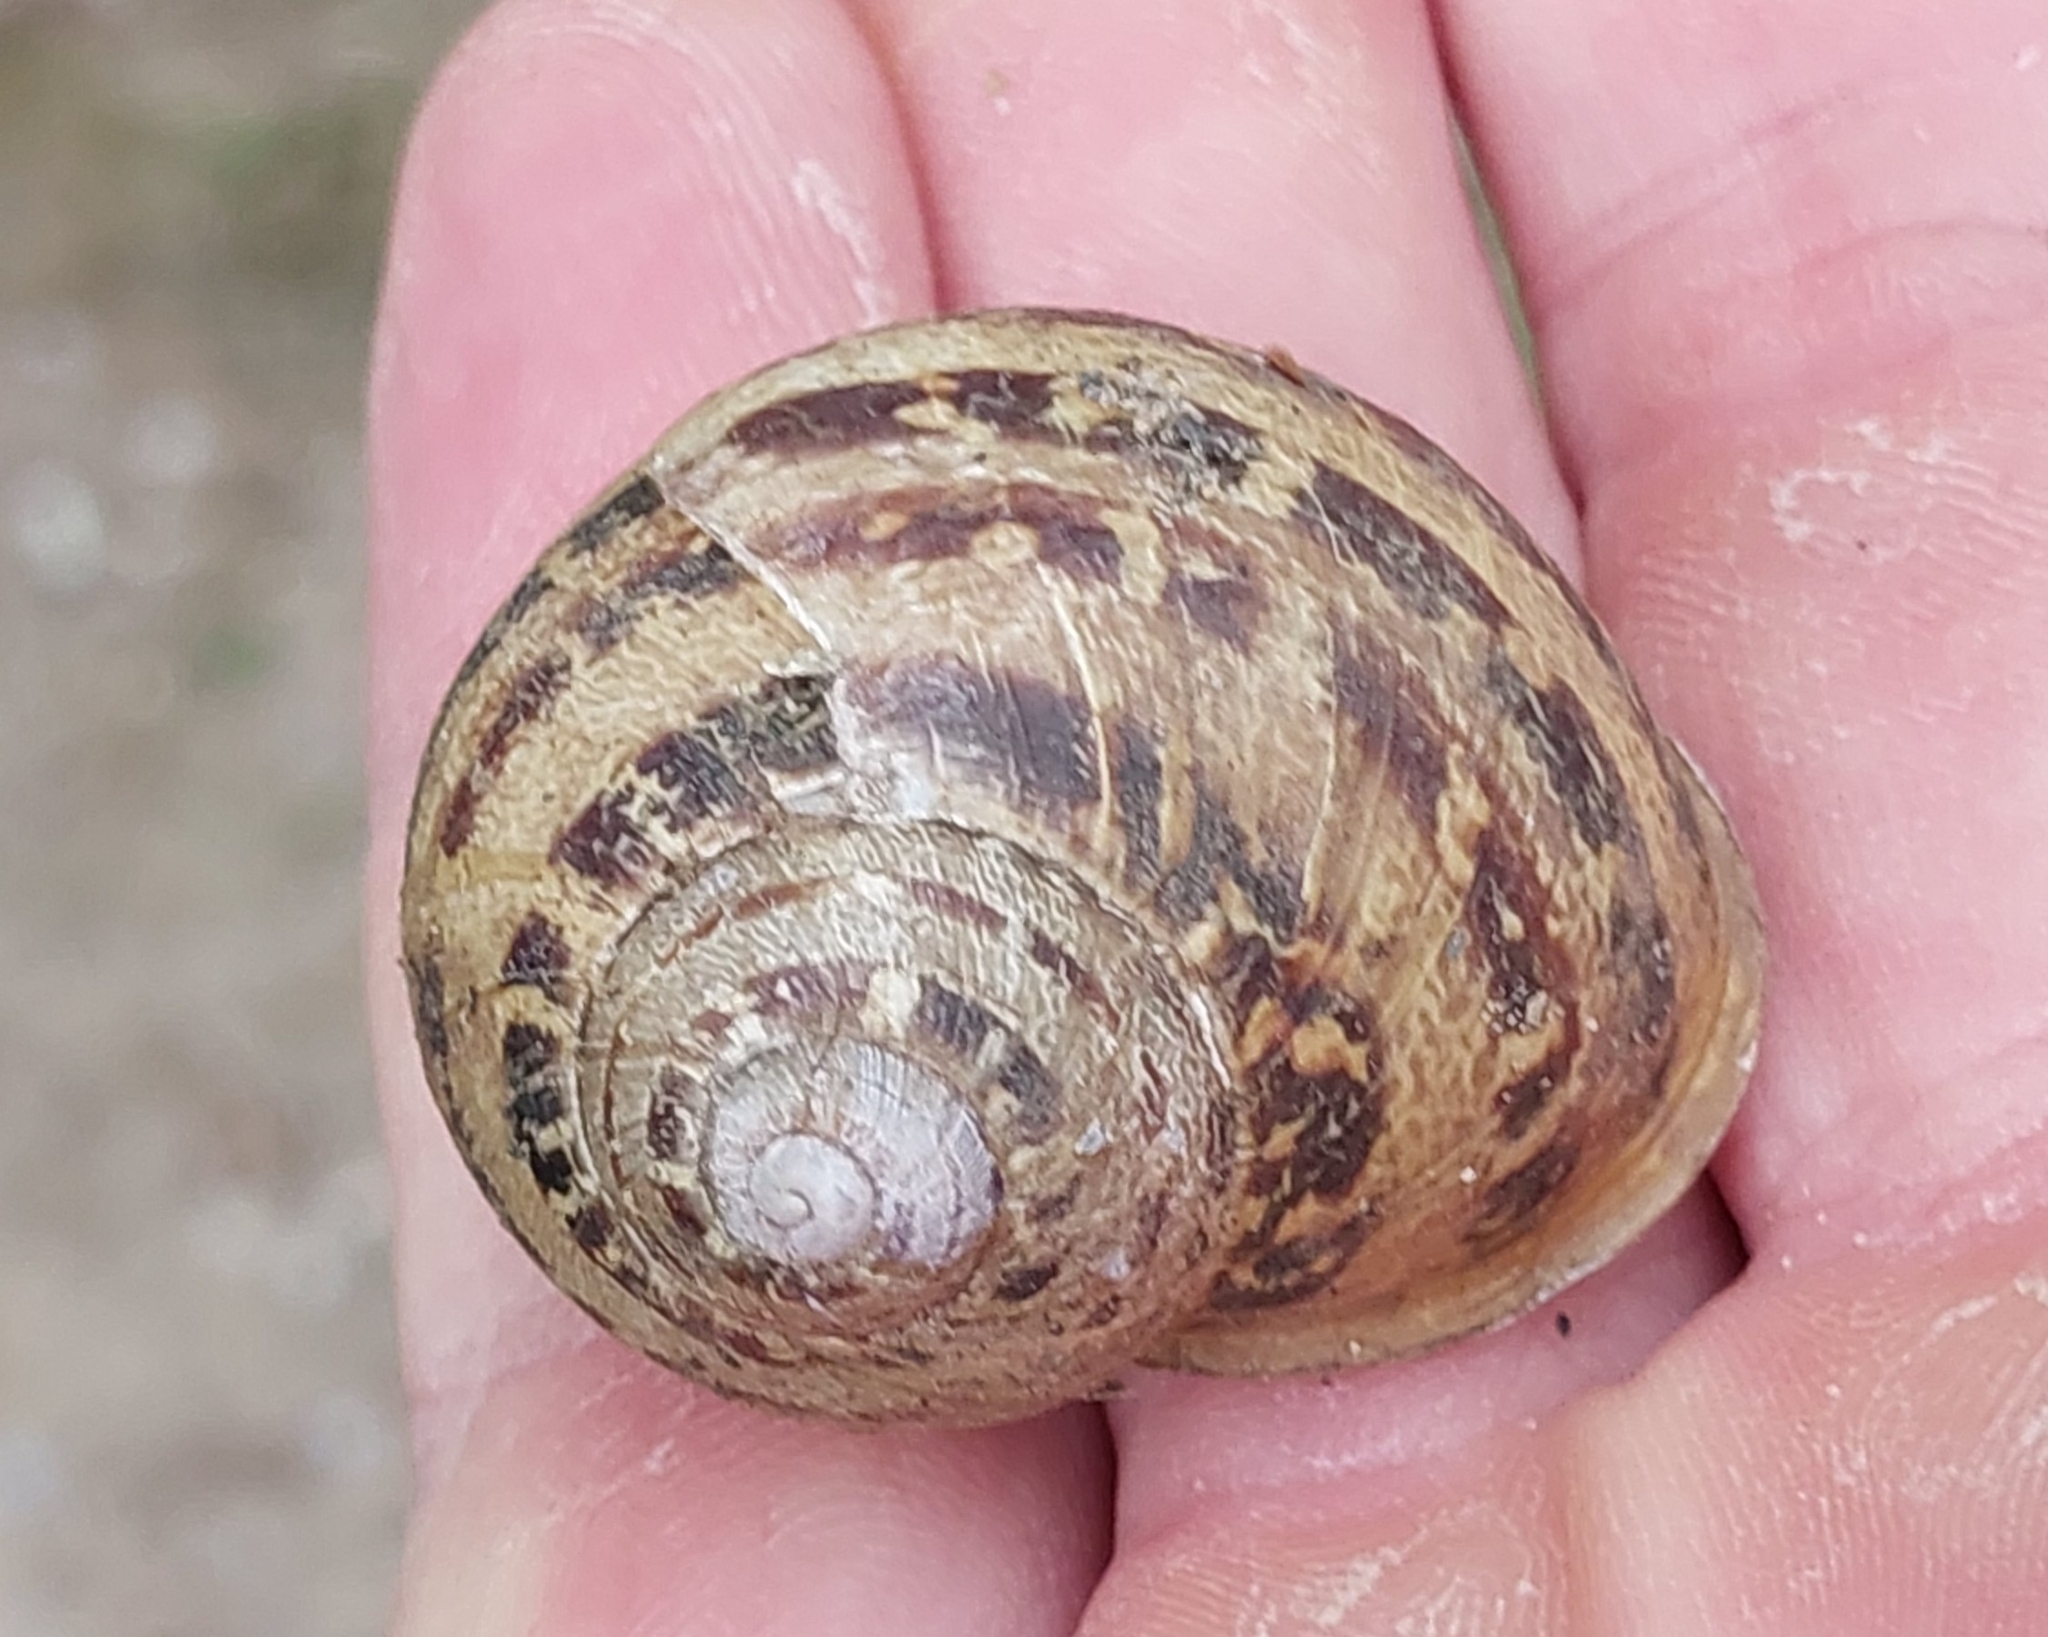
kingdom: Animalia
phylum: Mollusca
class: Gastropoda
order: Stylommatophora
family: Helicidae
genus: Cornu
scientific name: Cornu aspersum
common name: Brown garden snail
